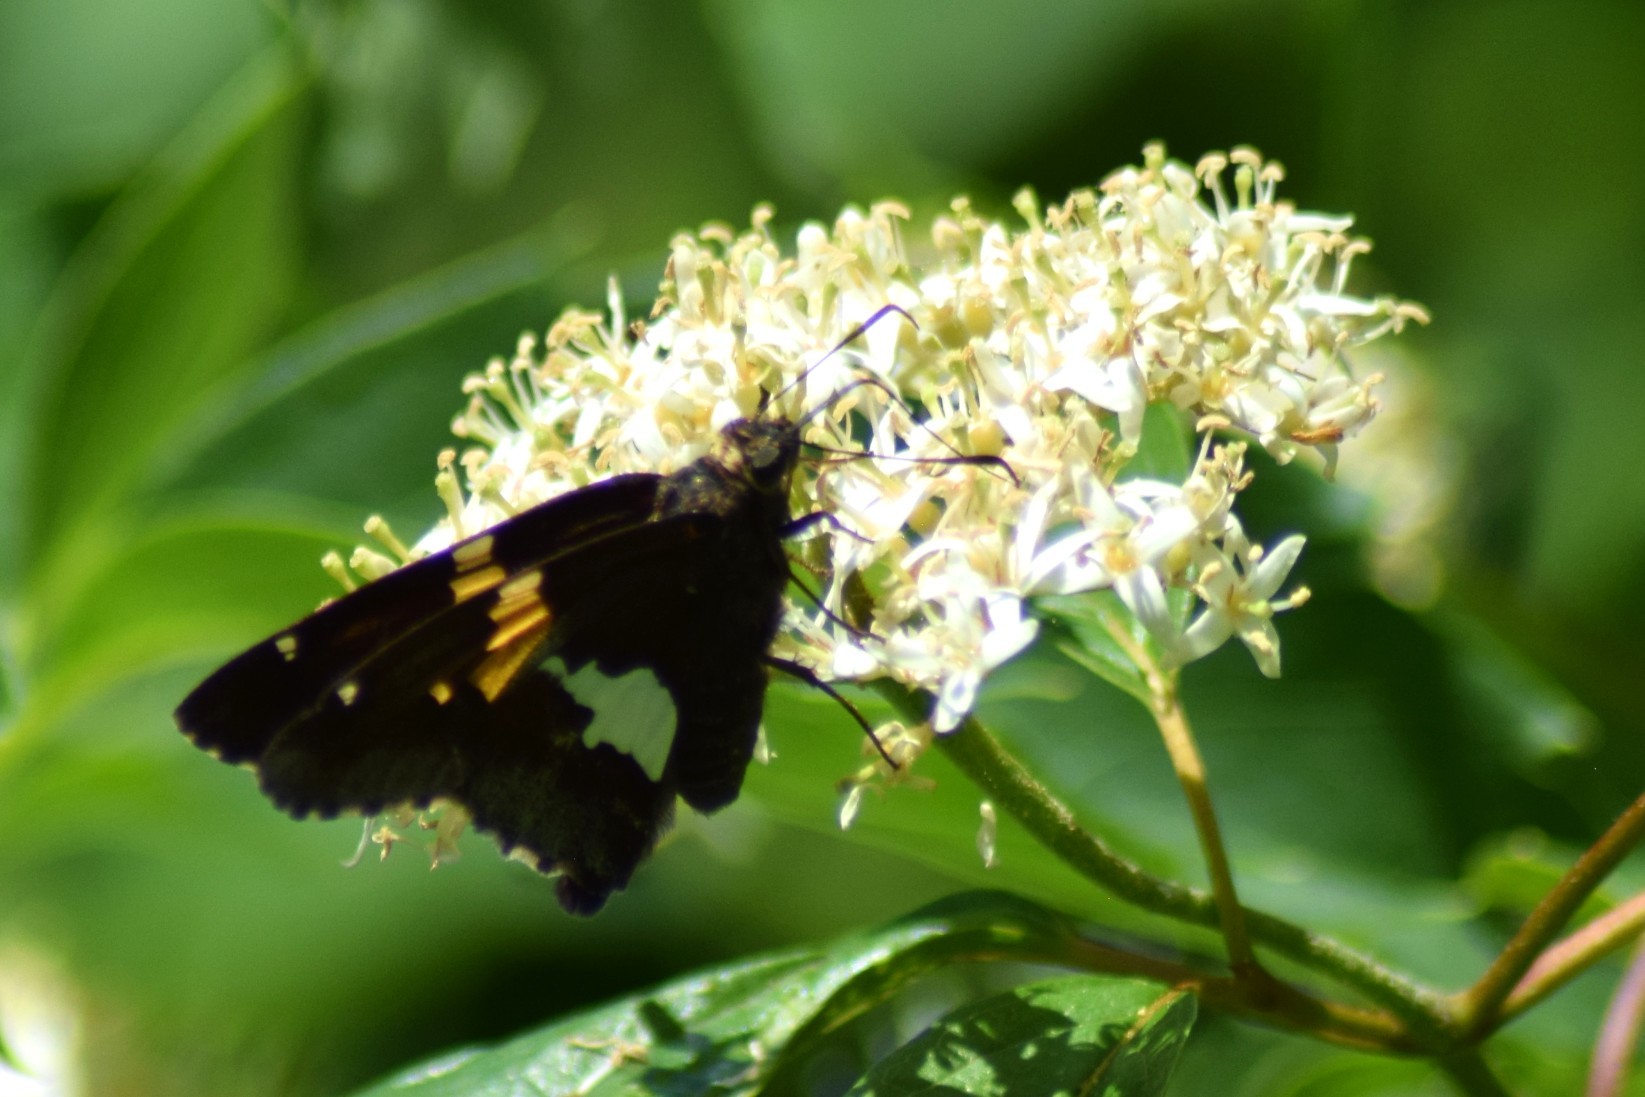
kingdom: Animalia
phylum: Arthropoda
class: Insecta
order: Lepidoptera
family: Hesperiidae
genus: Epargyreus
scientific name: Epargyreus clarus
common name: Silver-spotted skipper
